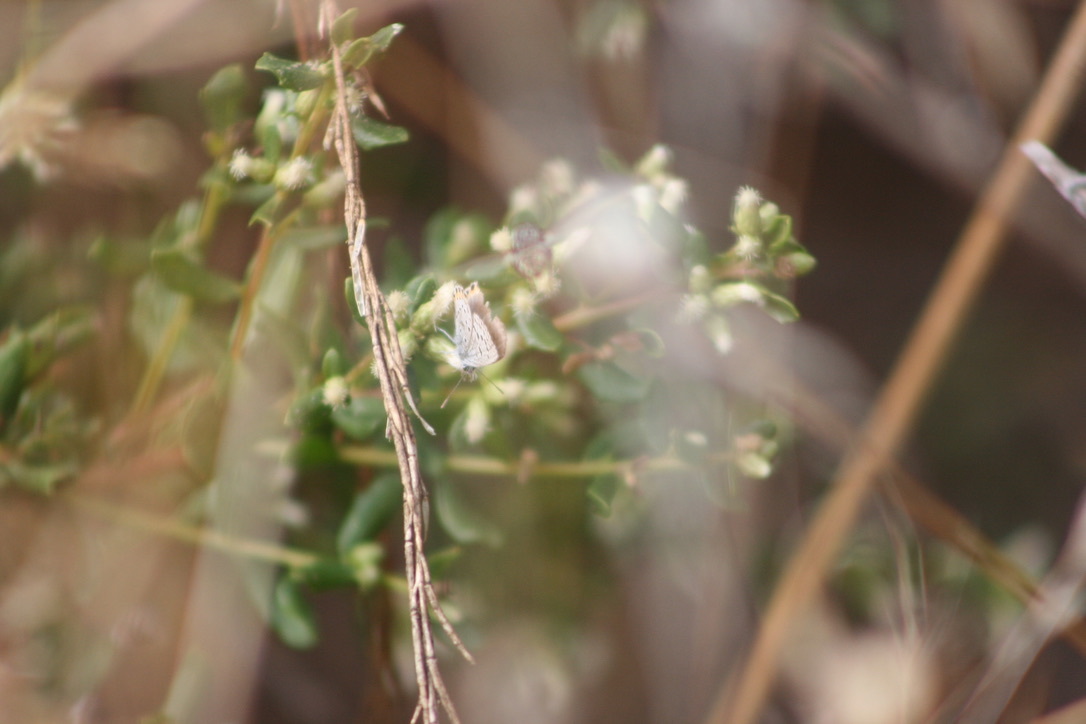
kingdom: Animalia
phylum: Arthropoda
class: Insecta
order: Lepidoptera
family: Lycaenidae
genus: Icaricia
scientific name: Icaricia acmon
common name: Acmon blue
